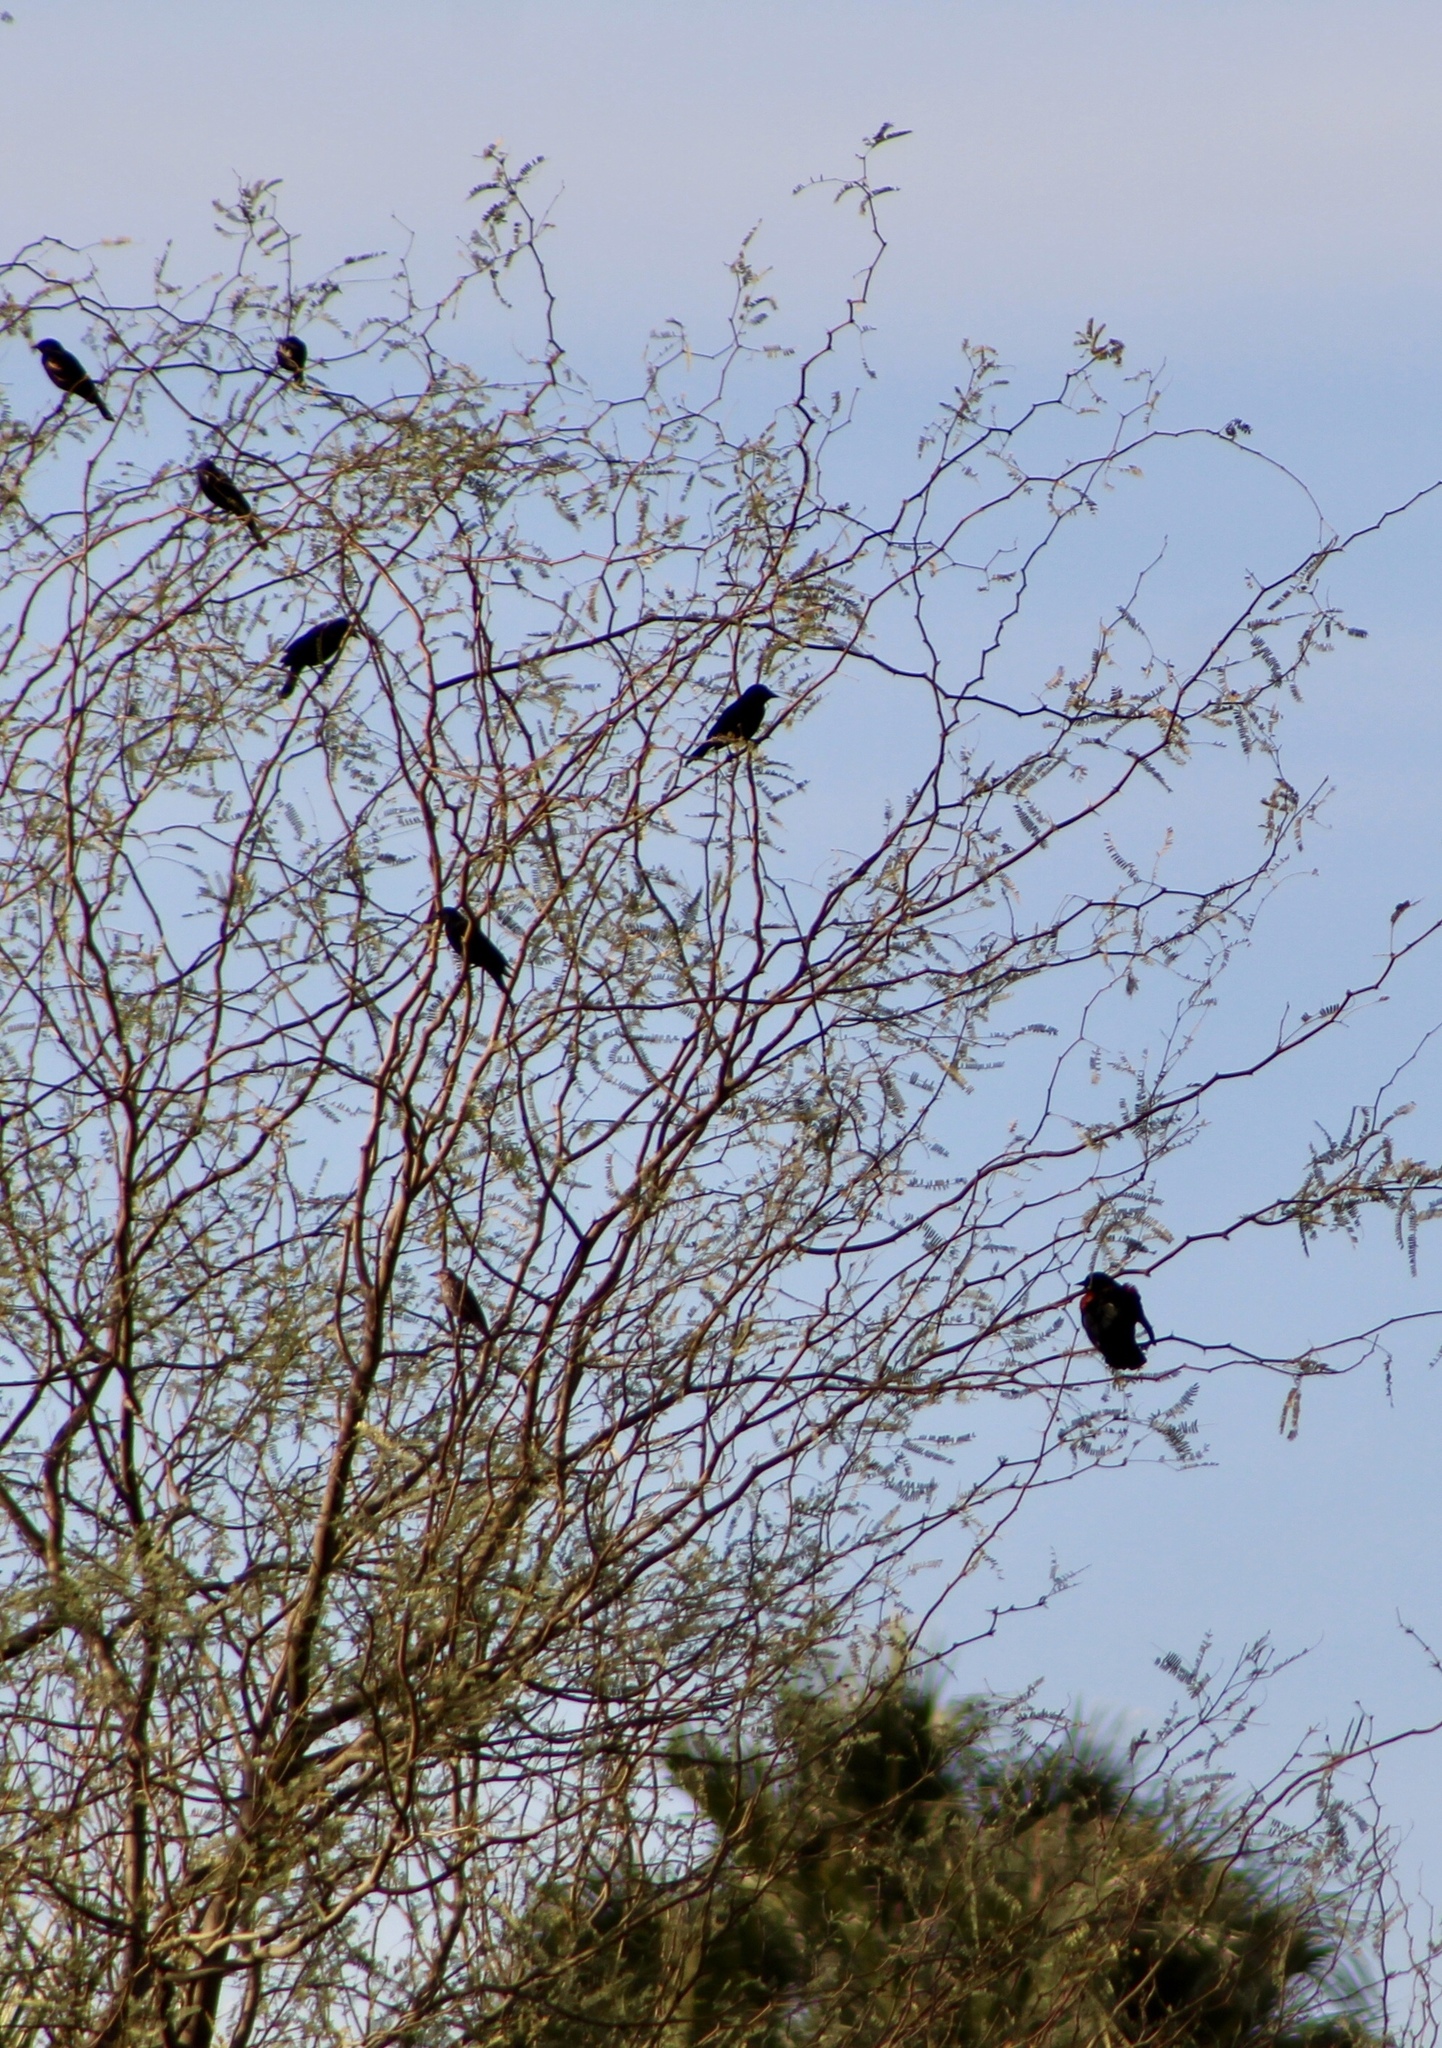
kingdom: Animalia
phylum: Chordata
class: Aves
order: Passeriformes
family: Icteridae
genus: Agelaius
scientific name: Agelaius phoeniceus
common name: Red-winged blackbird
